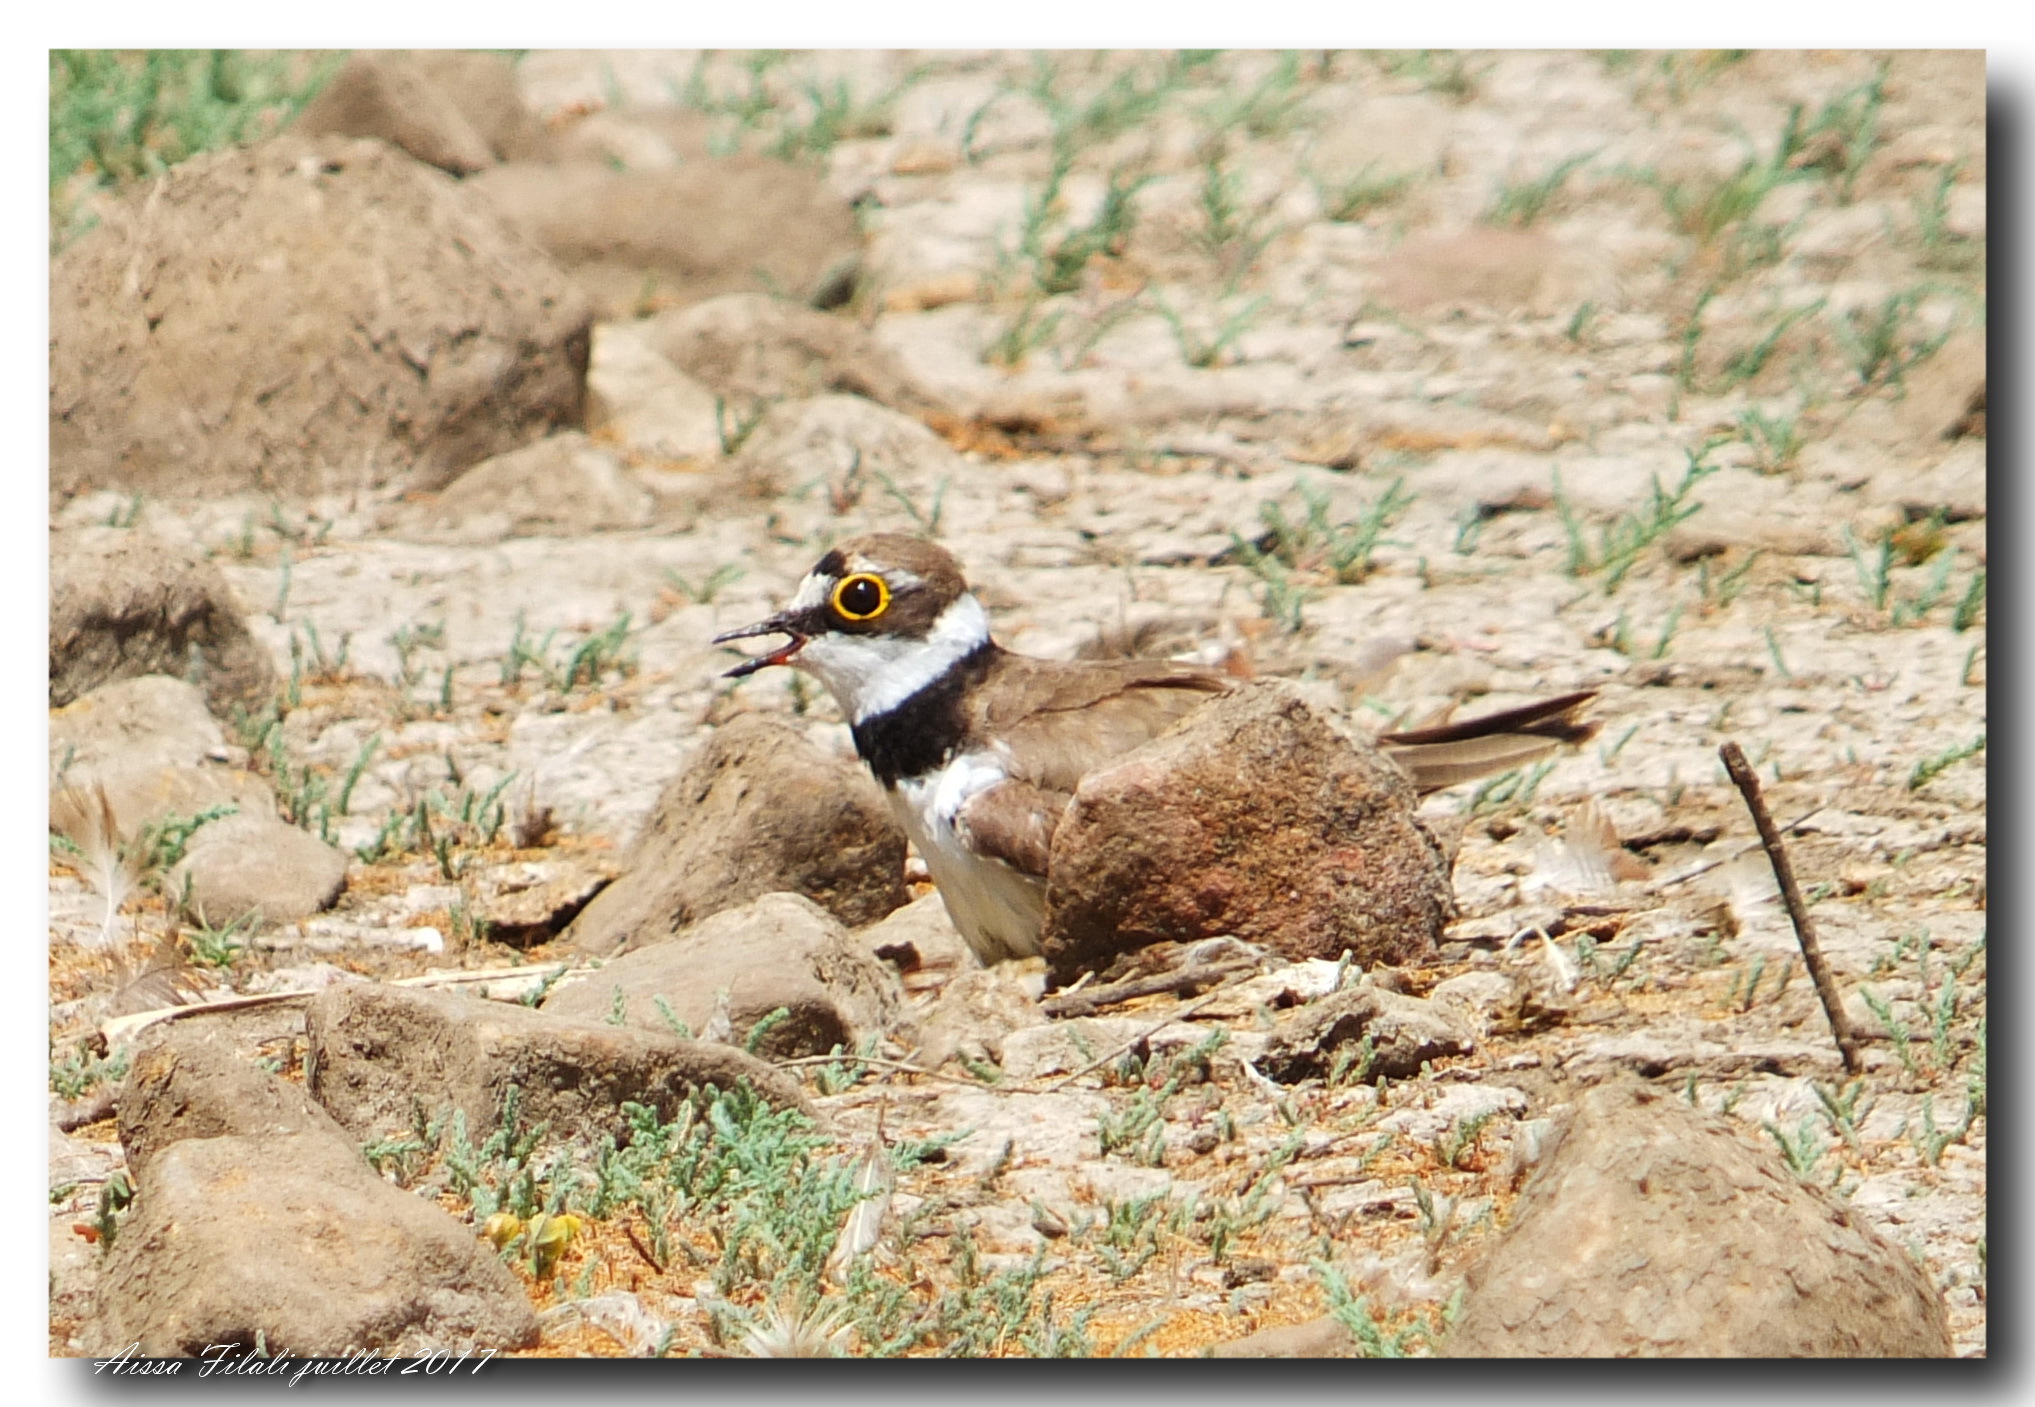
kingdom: Animalia
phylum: Chordata
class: Aves
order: Charadriiformes
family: Charadriidae
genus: Charadrius
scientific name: Charadrius dubius
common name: Little ringed plover
